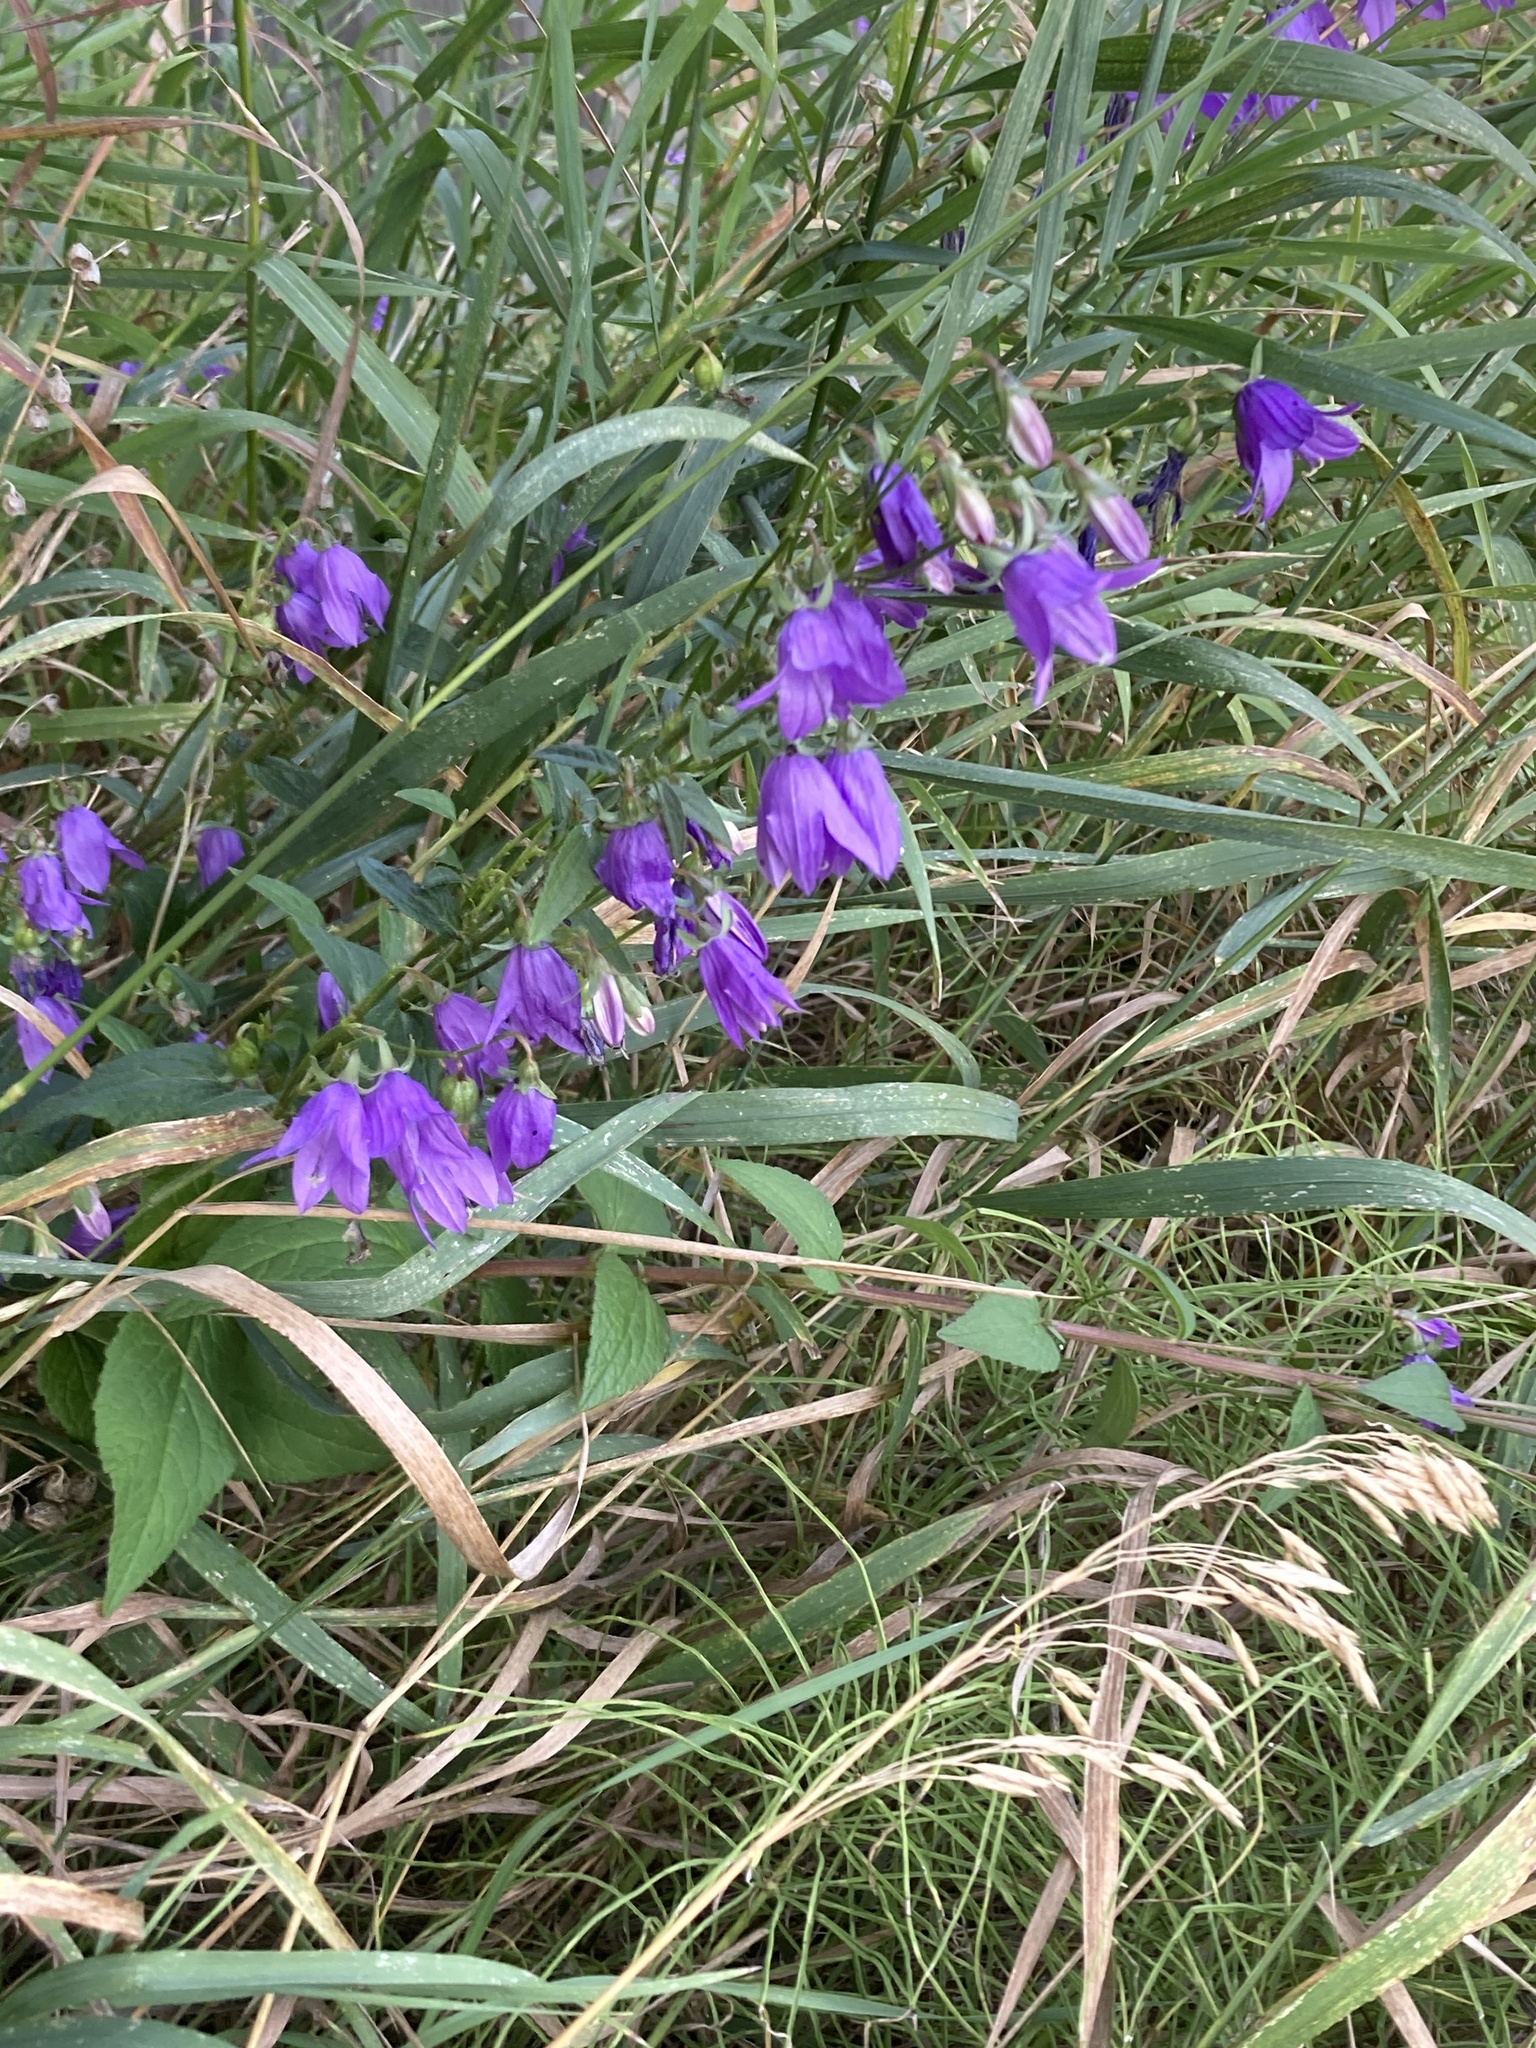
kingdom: Plantae
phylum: Tracheophyta
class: Magnoliopsida
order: Asterales
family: Campanulaceae
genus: Campanula
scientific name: Campanula rapunculoides
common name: Creeping bellflower
